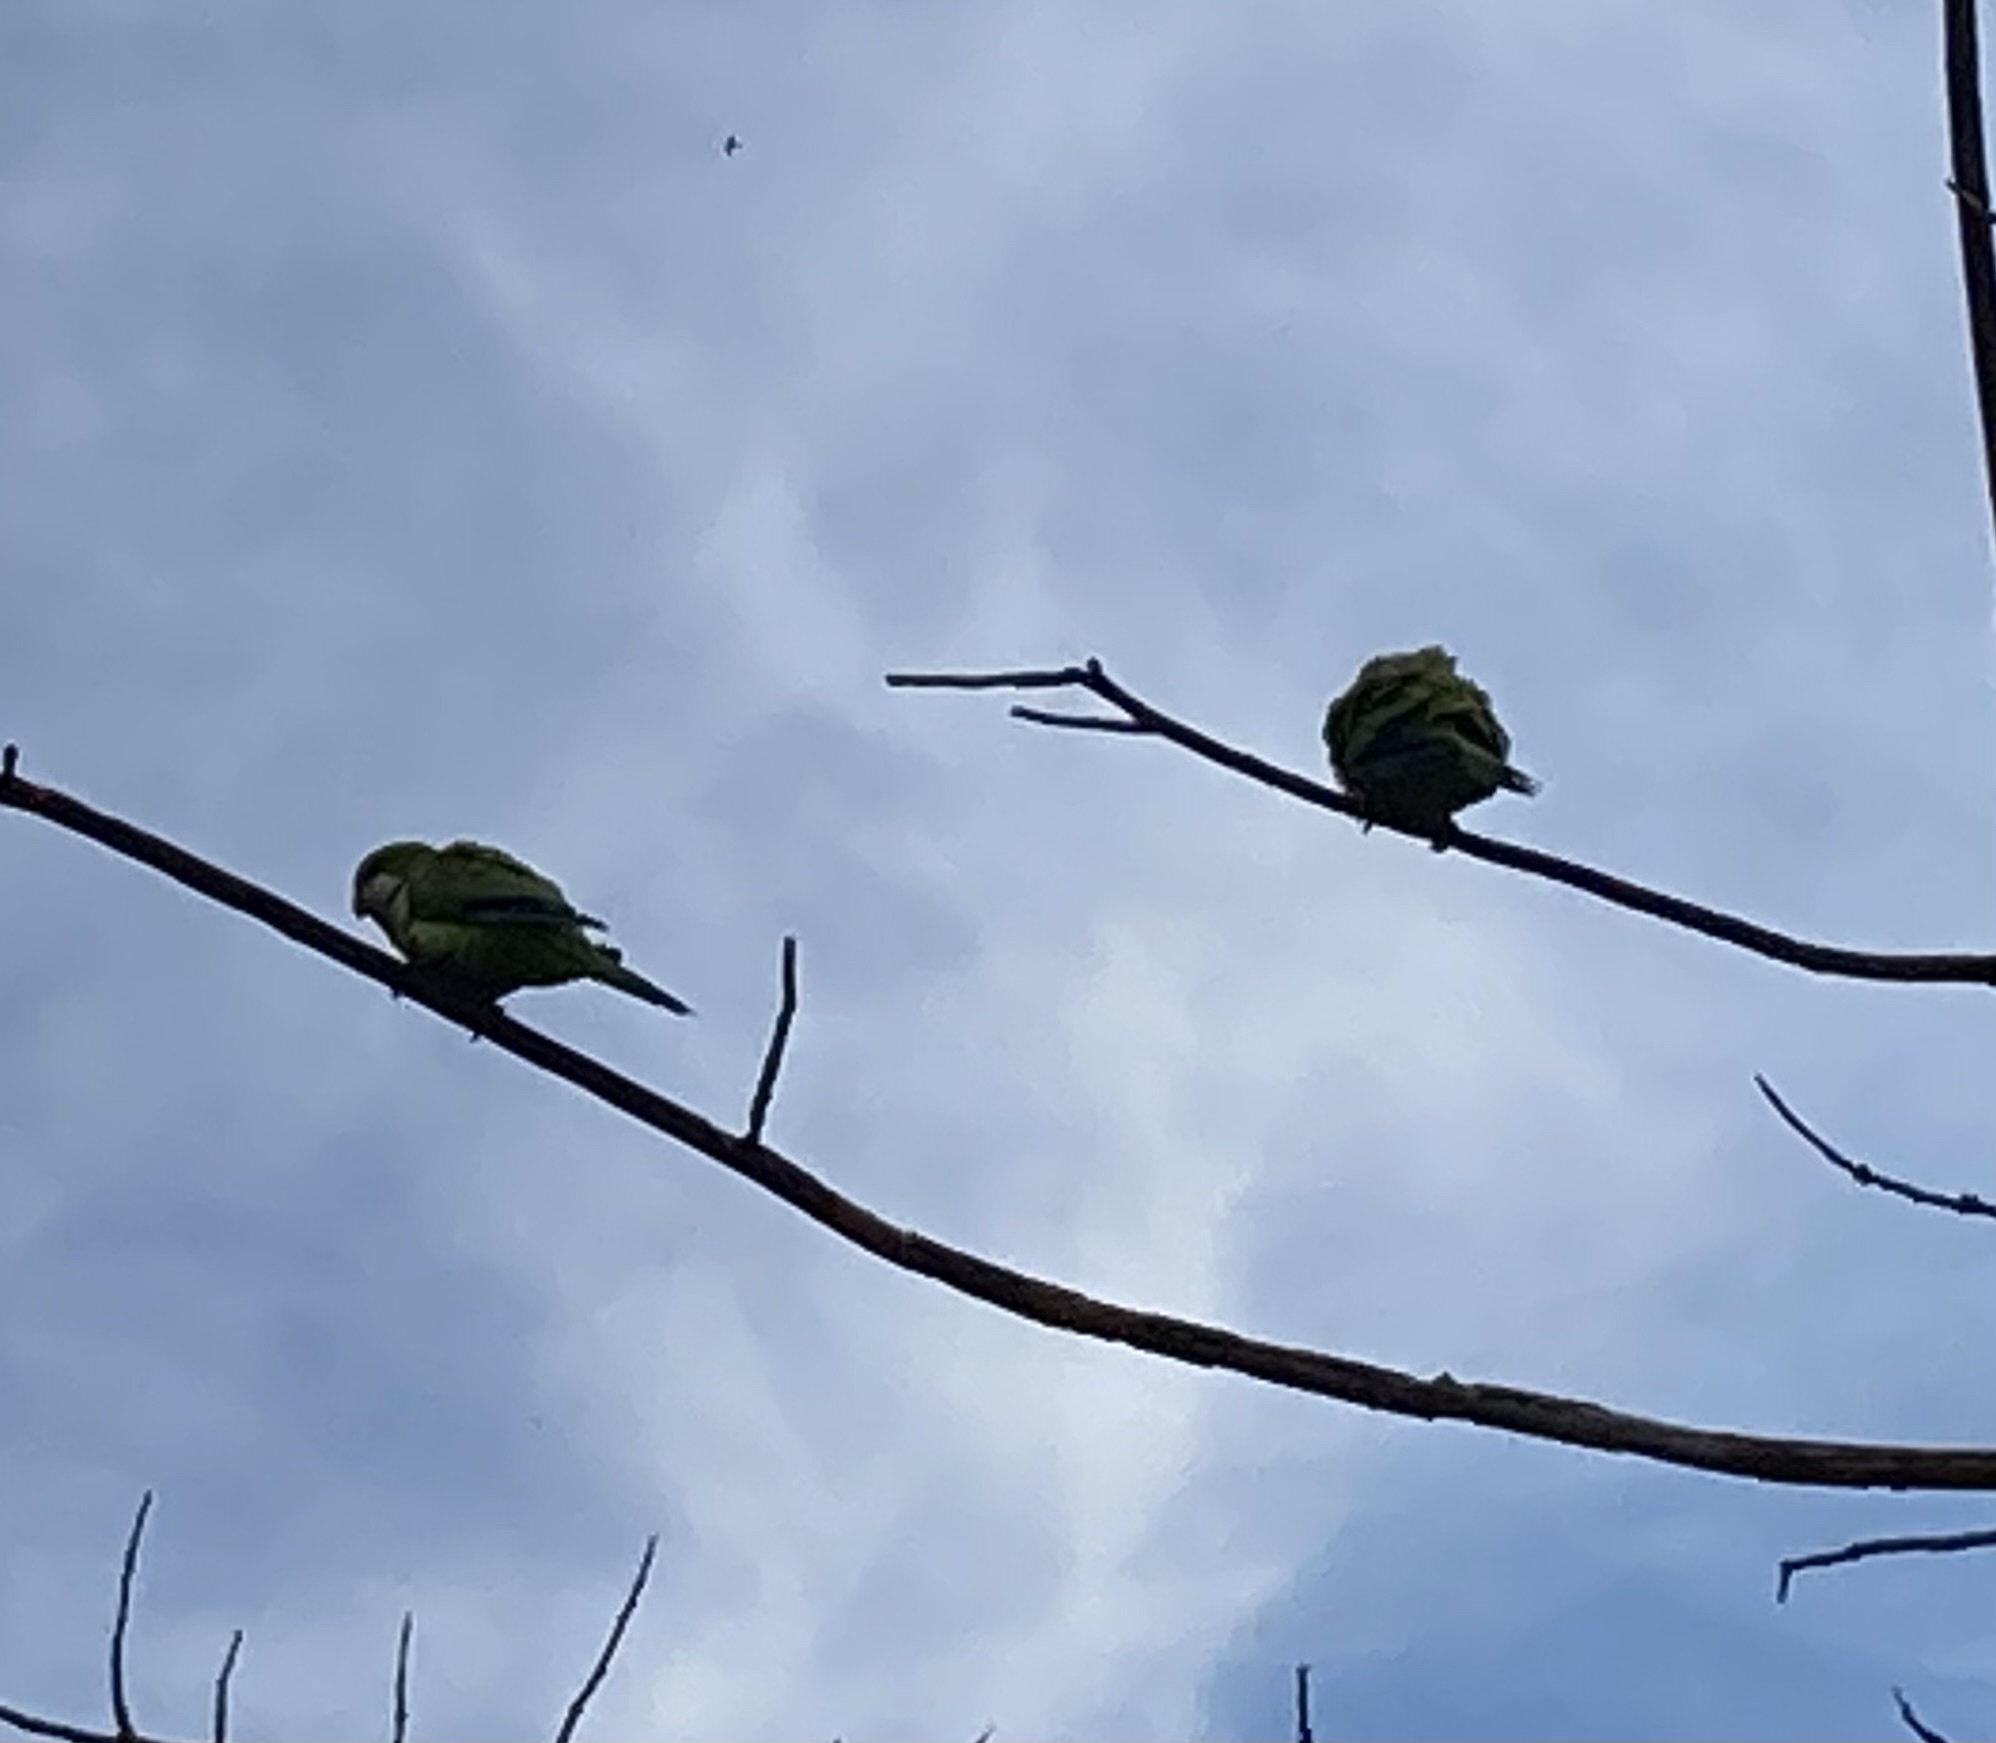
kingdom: Animalia
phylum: Chordata
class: Aves
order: Psittaciformes
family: Psittacidae
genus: Myiopsitta
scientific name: Myiopsitta monachus
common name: Monk parakeet
